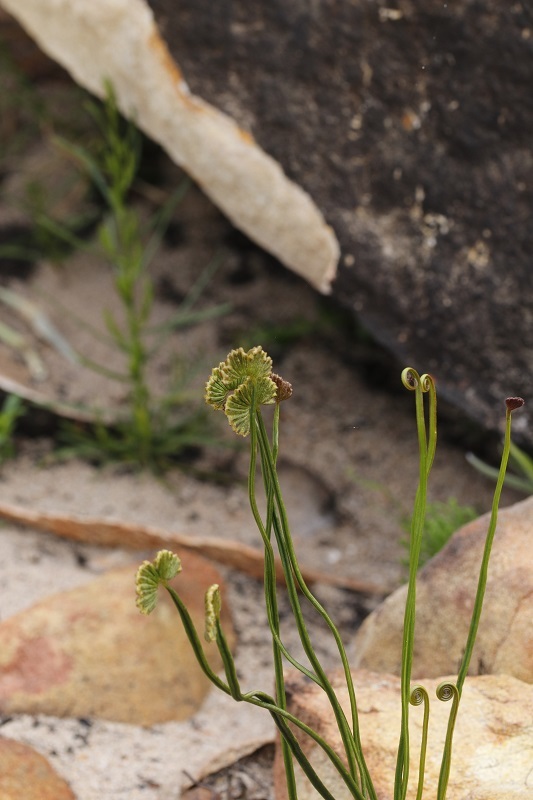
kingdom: Plantae
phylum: Tracheophyta
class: Polypodiopsida
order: Schizaeales
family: Schizaeaceae
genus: Schizaea
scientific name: Schizaea pectinata
